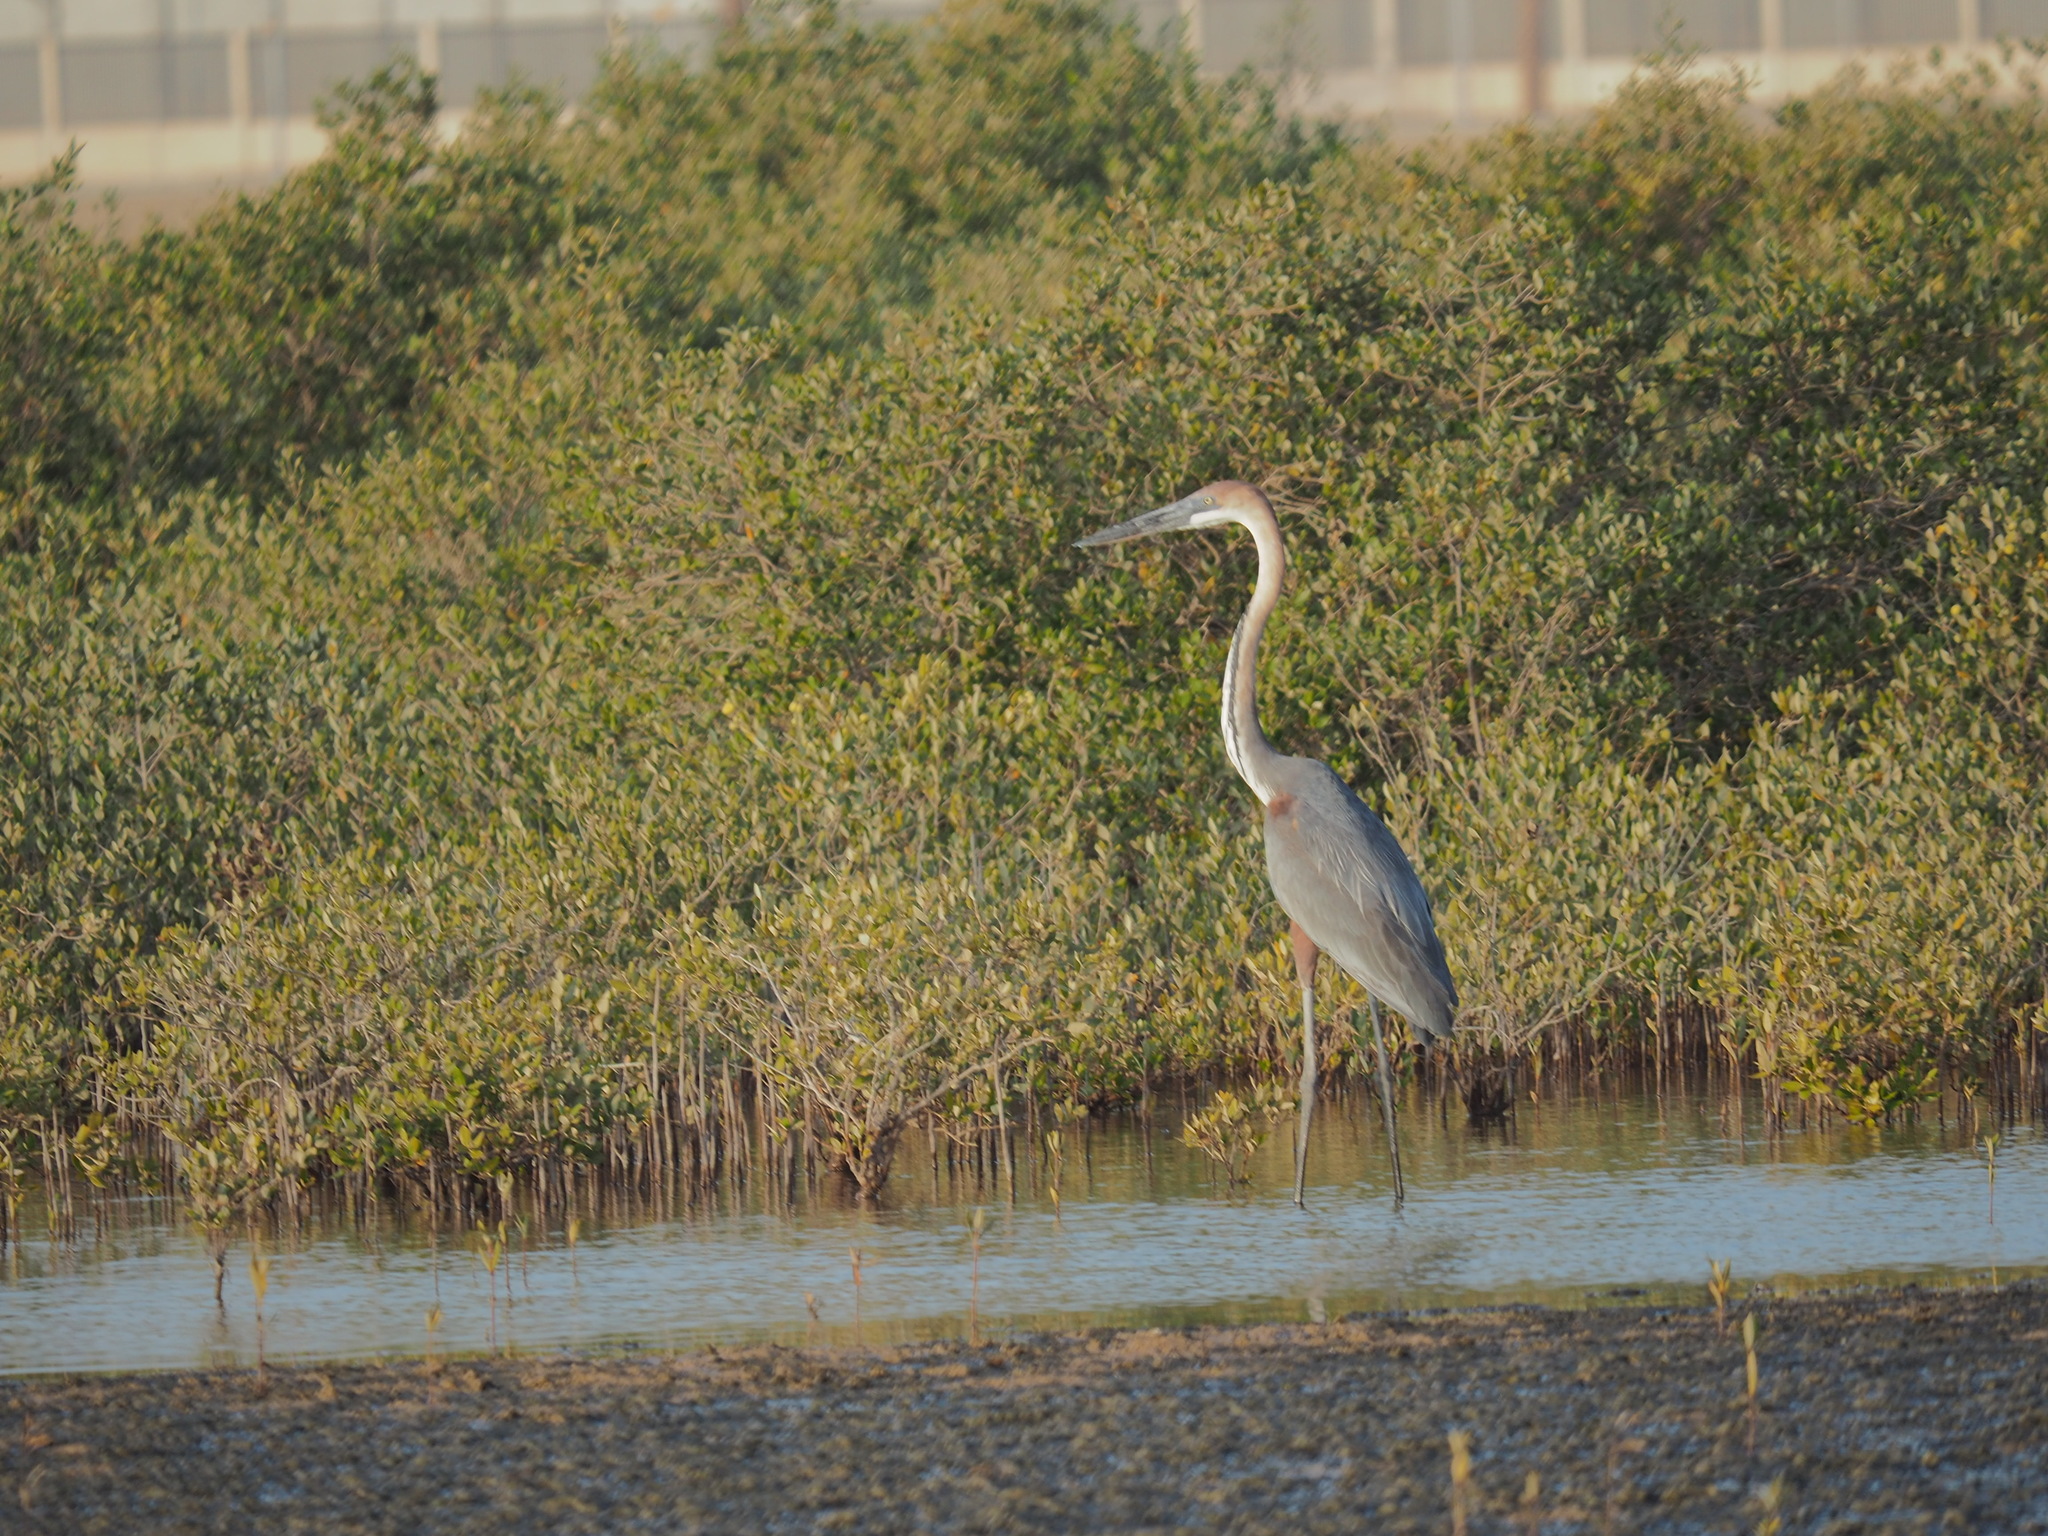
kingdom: Animalia
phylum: Chordata
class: Aves
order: Pelecaniformes
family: Ardeidae
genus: Ardea
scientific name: Ardea goliath
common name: Goliath heron
